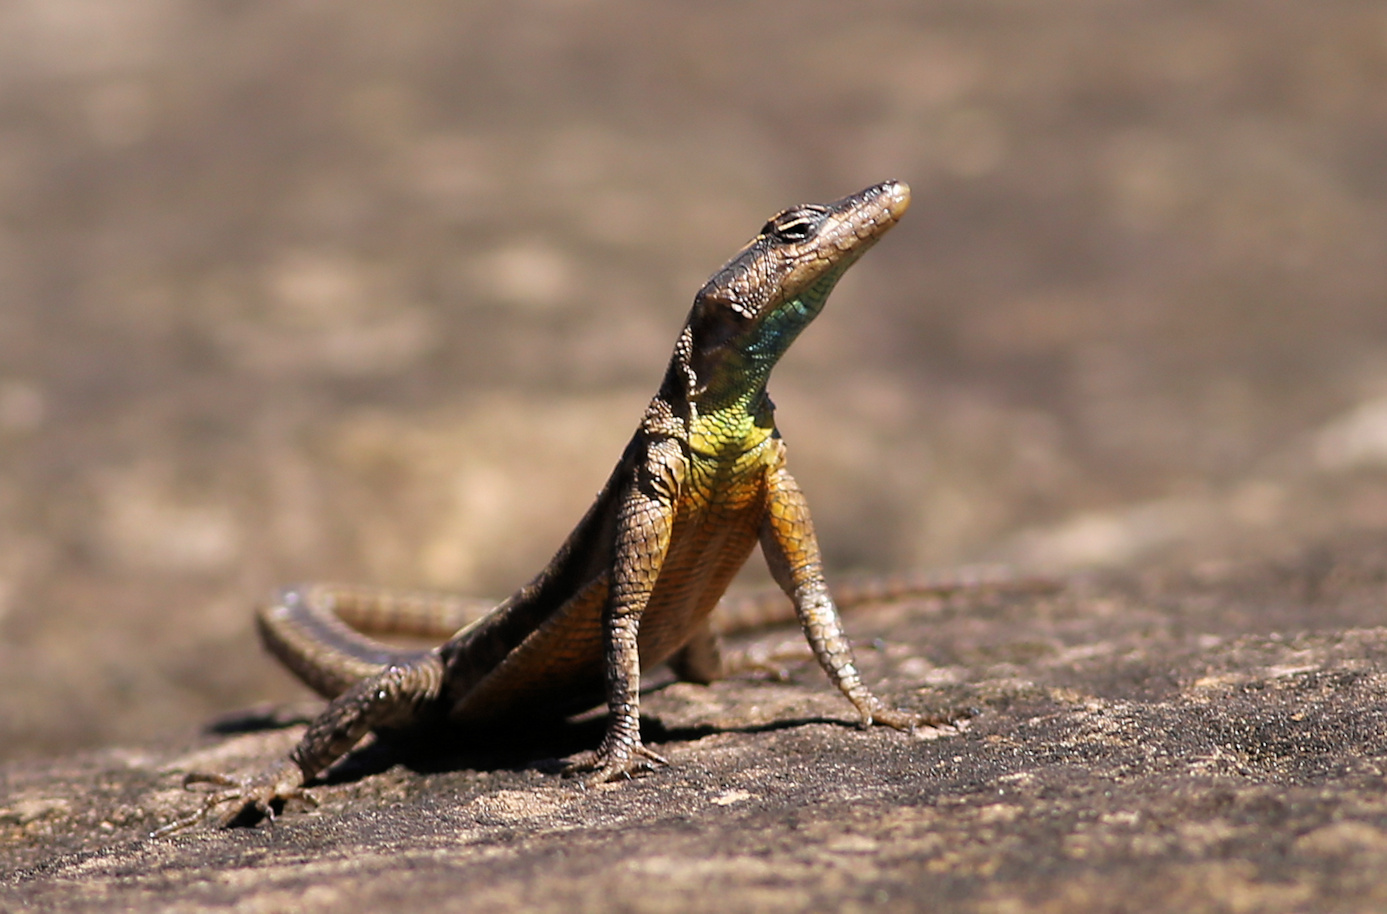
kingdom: Animalia
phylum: Chordata
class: Squamata
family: Cordylidae
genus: Platysaurus
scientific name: Platysaurus intermedius
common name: Common flat lizard
